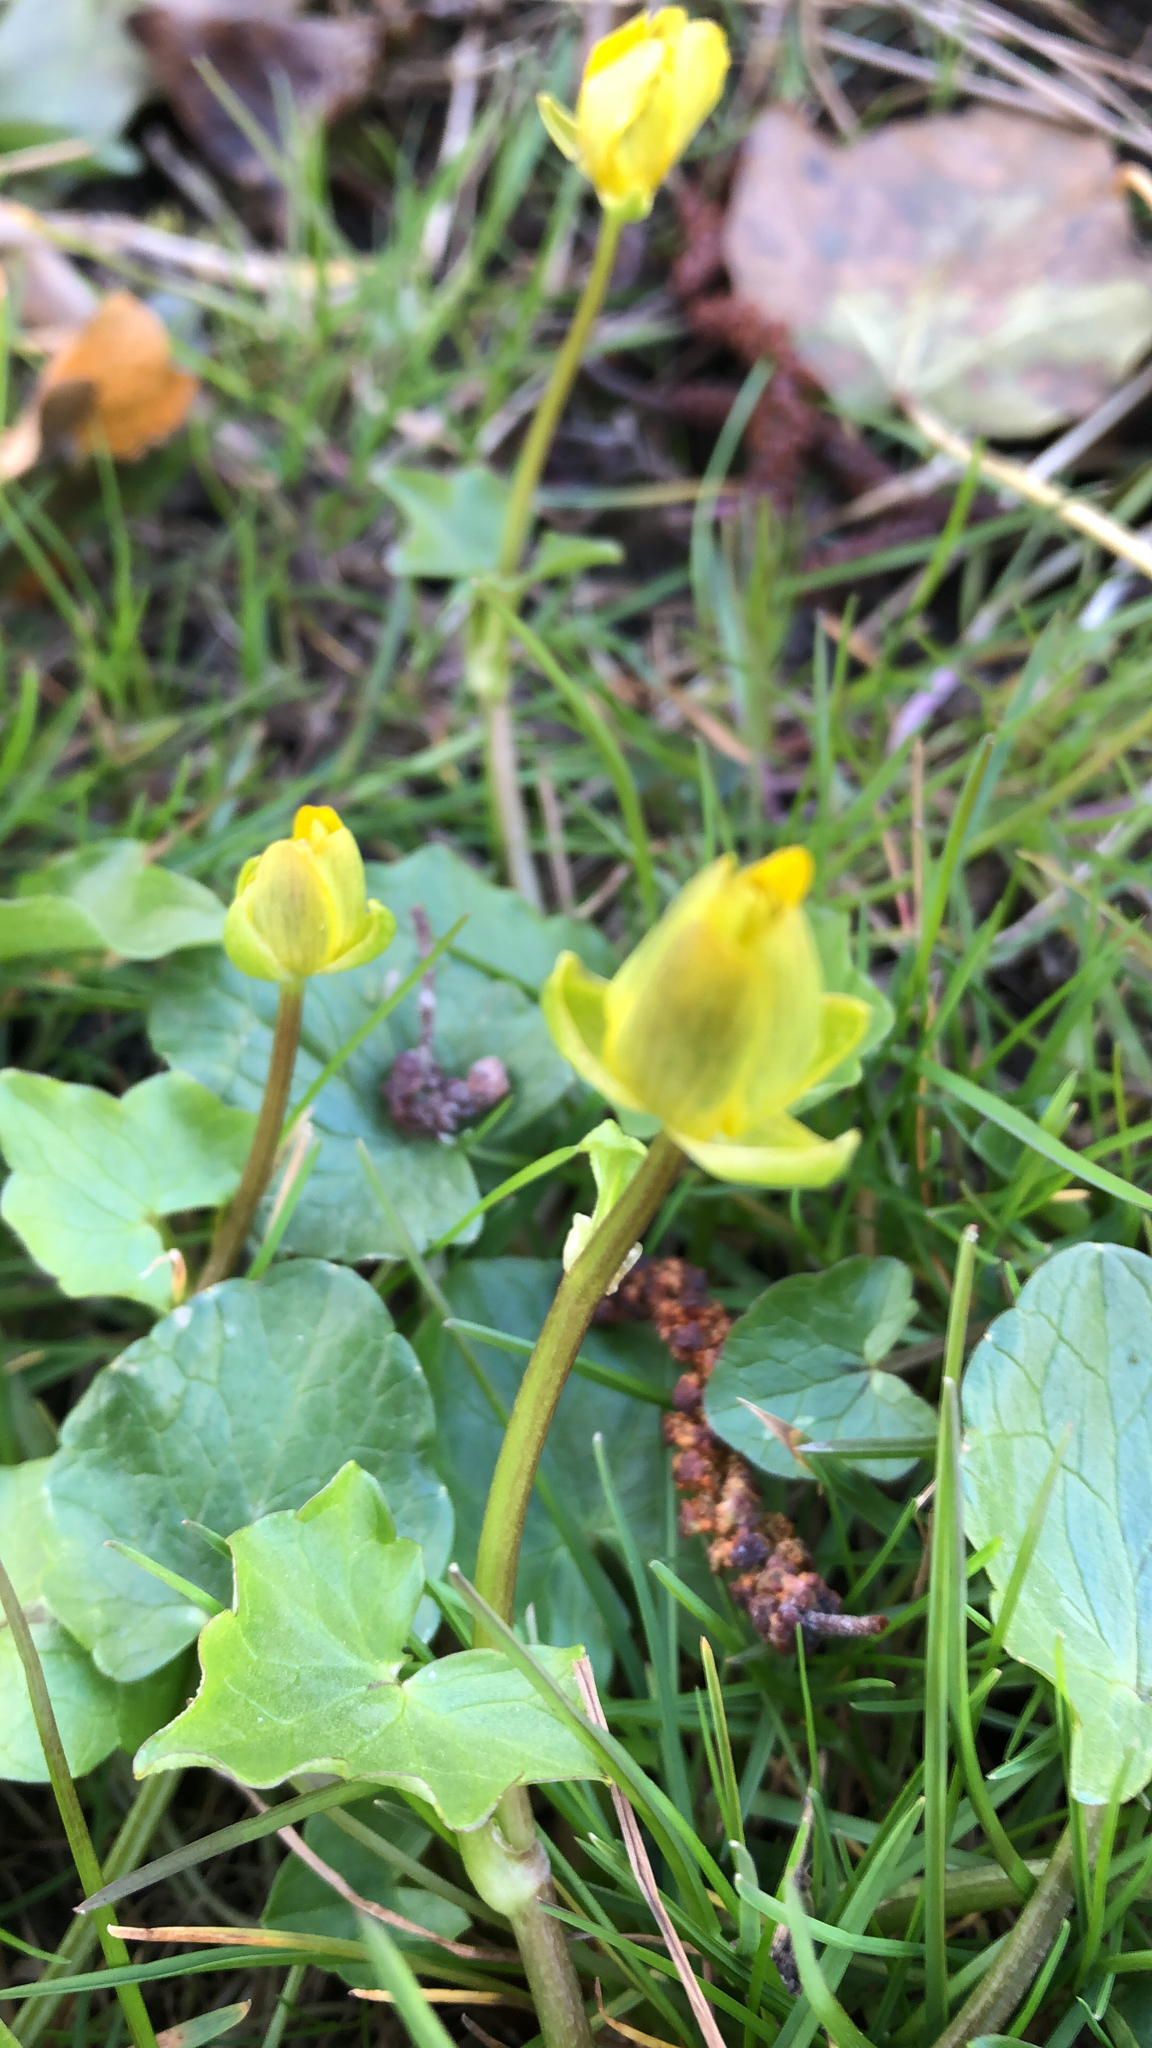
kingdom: Plantae
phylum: Tracheophyta
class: Magnoliopsida
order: Ranunculales
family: Ranunculaceae
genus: Ficaria
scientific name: Ficaria verna
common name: Lesser celandine
